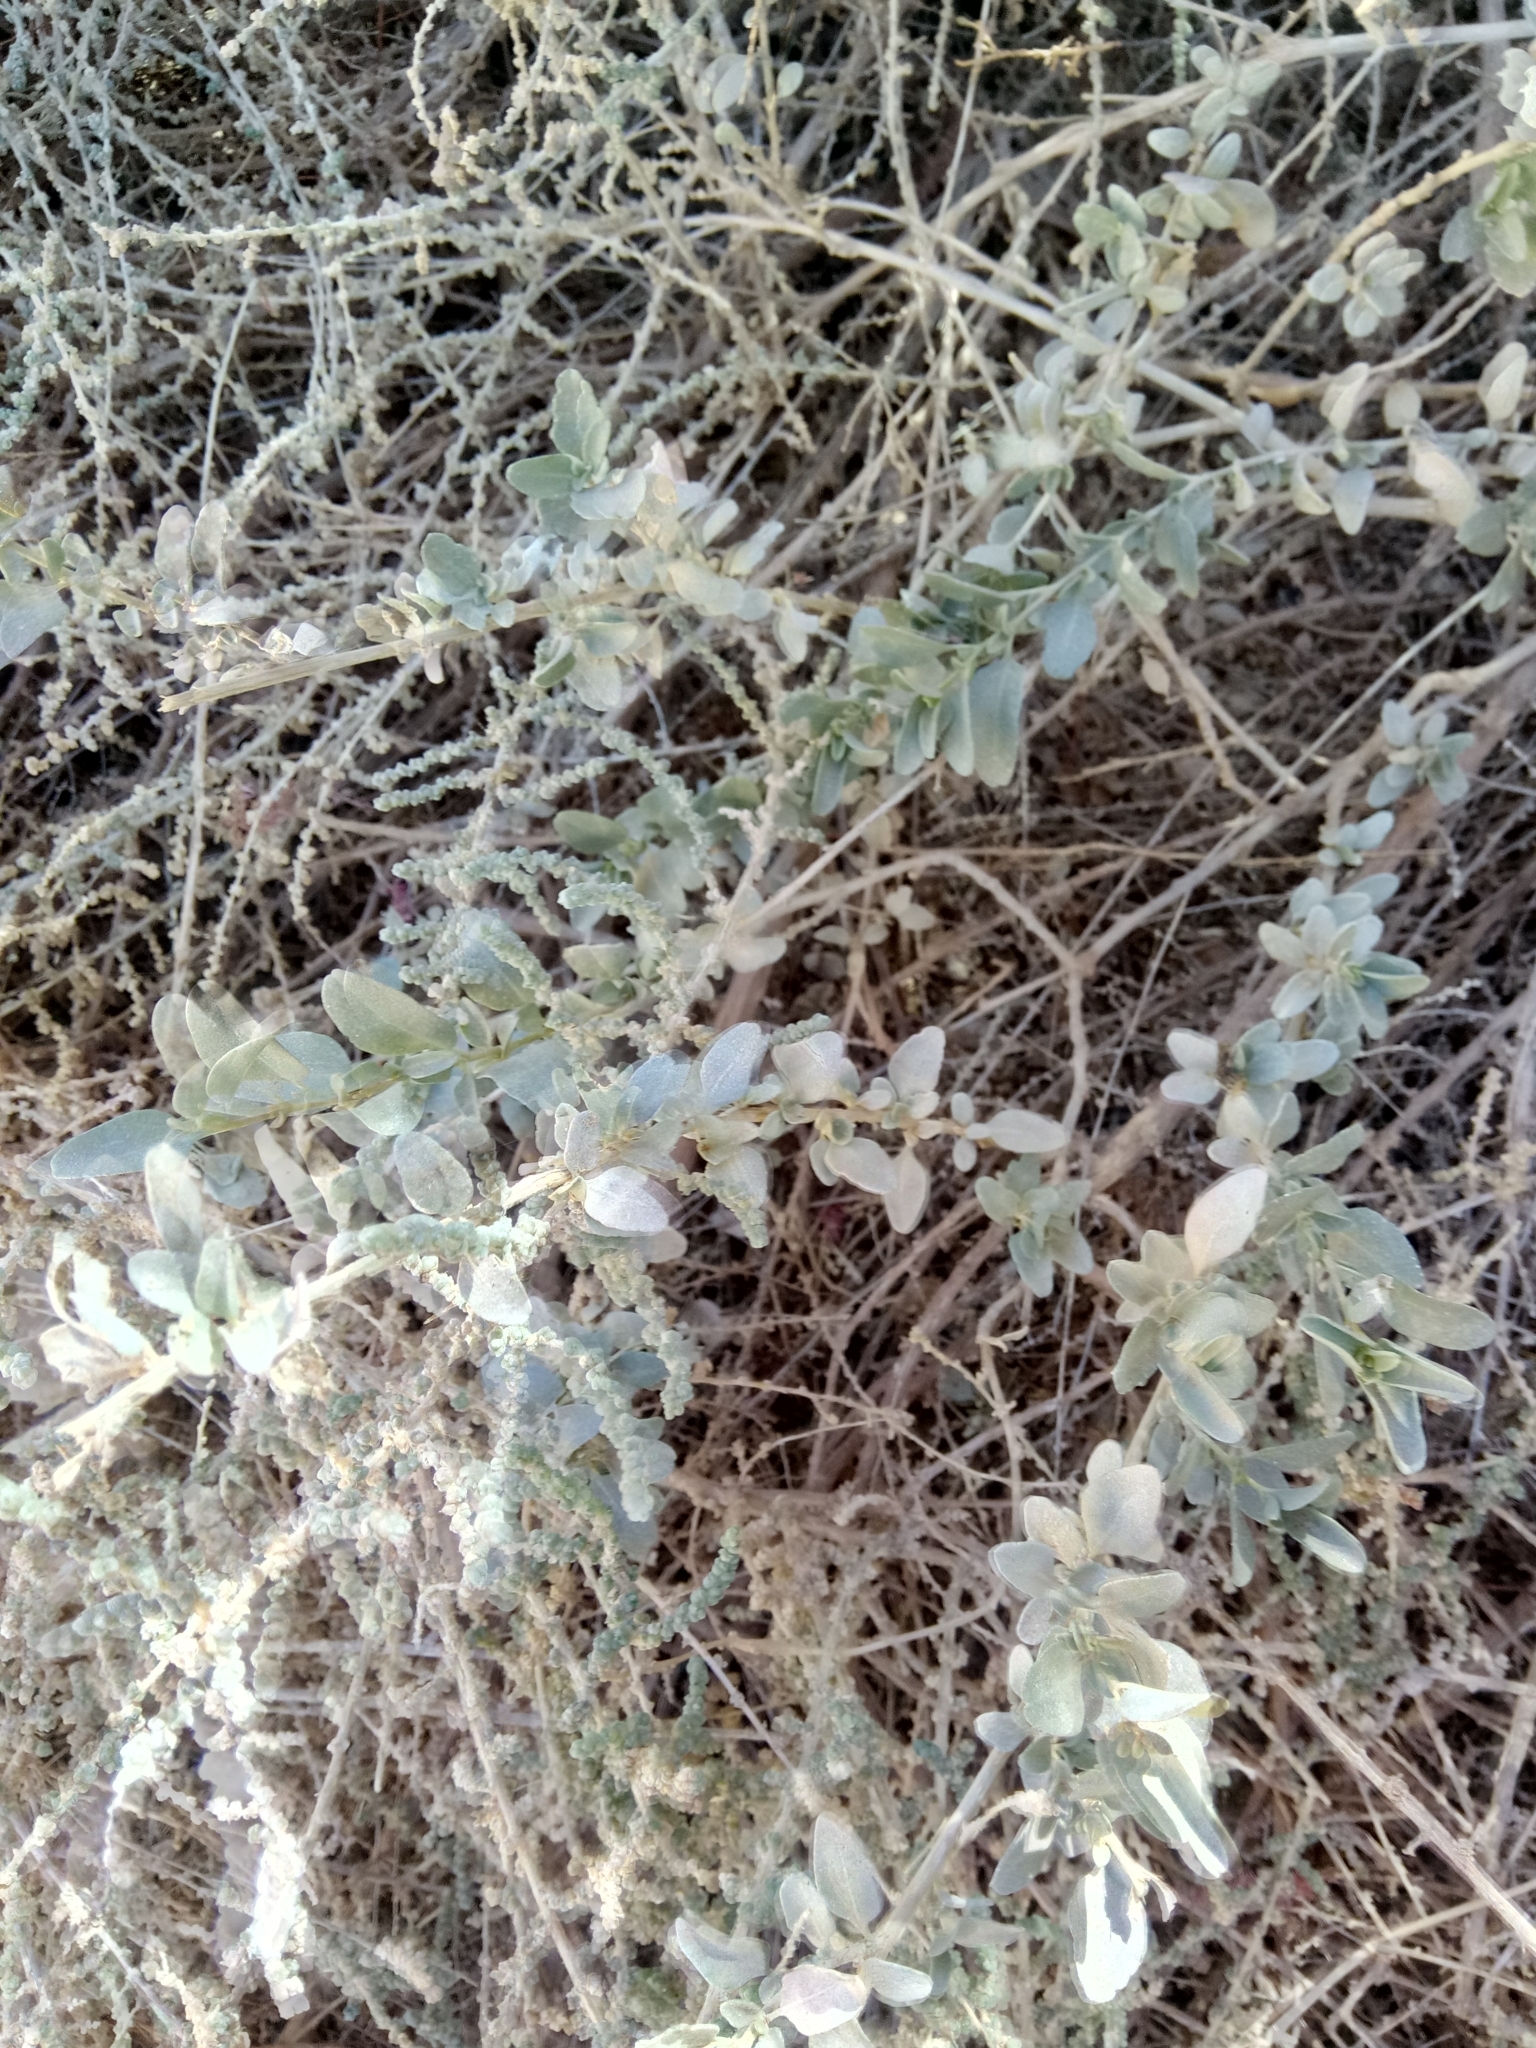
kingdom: Plantae
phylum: Tracheophyta
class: Magnoliopsida
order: Caryophyllales
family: Amaranthaceae
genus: Atriplex
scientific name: Atriplex halimus
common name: Shrubby orache
